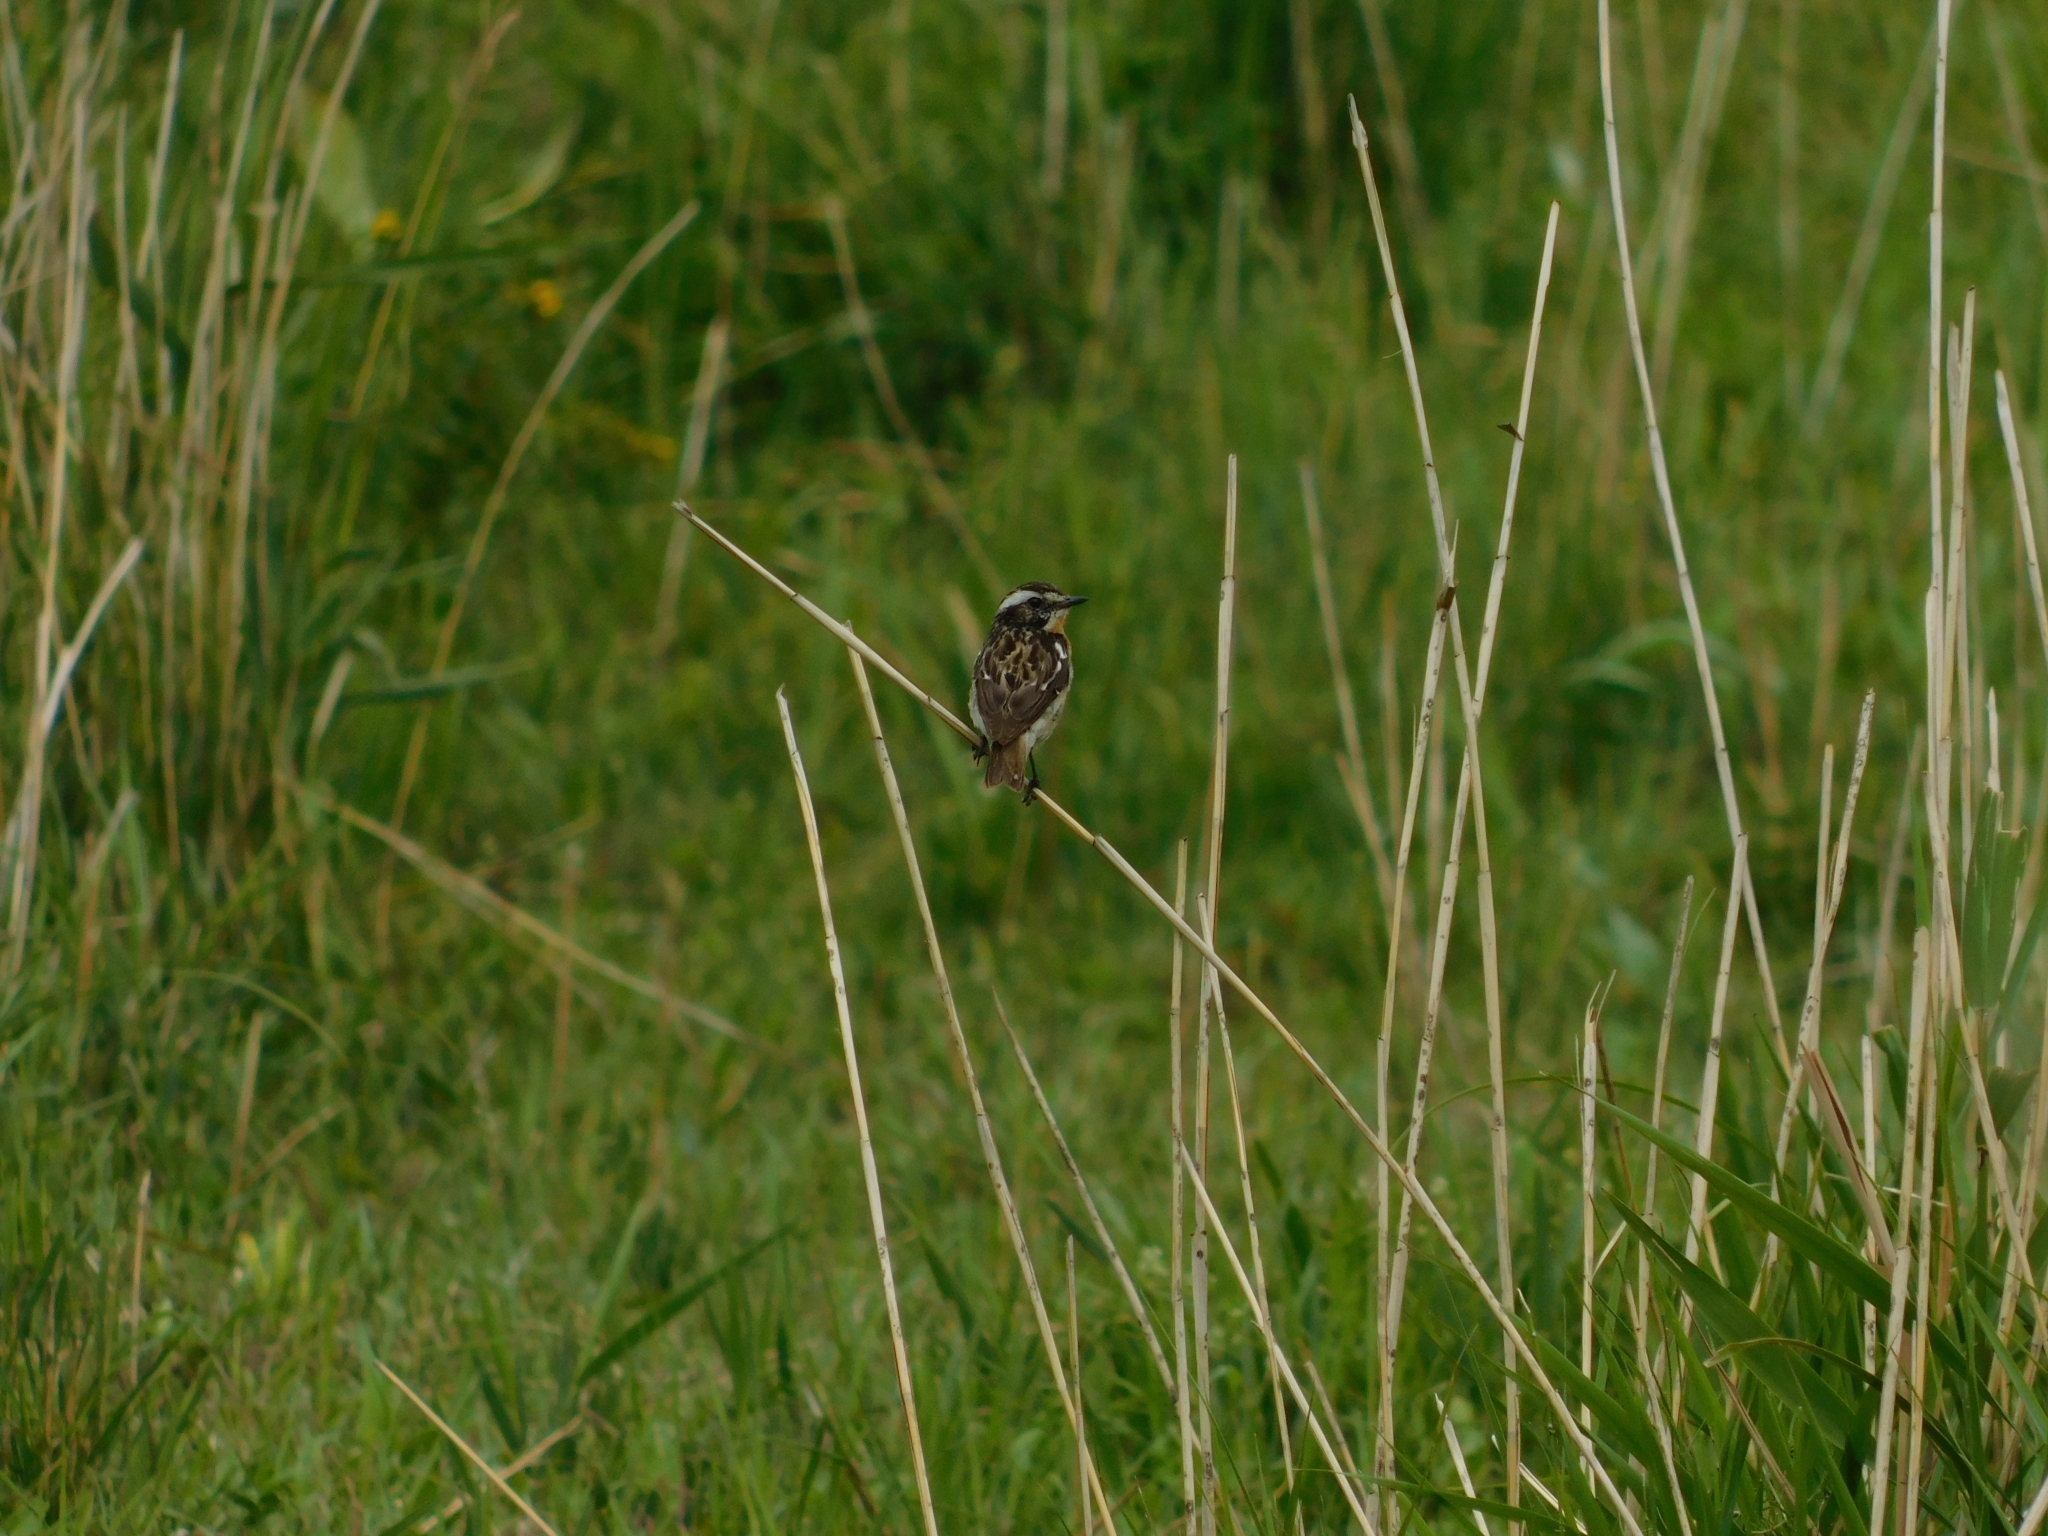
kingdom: Animalia
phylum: Chordata
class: Aves
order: Passeriformes
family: Muscicapidae
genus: Saxicola
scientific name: Saxicola rubetra
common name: Whinchat
